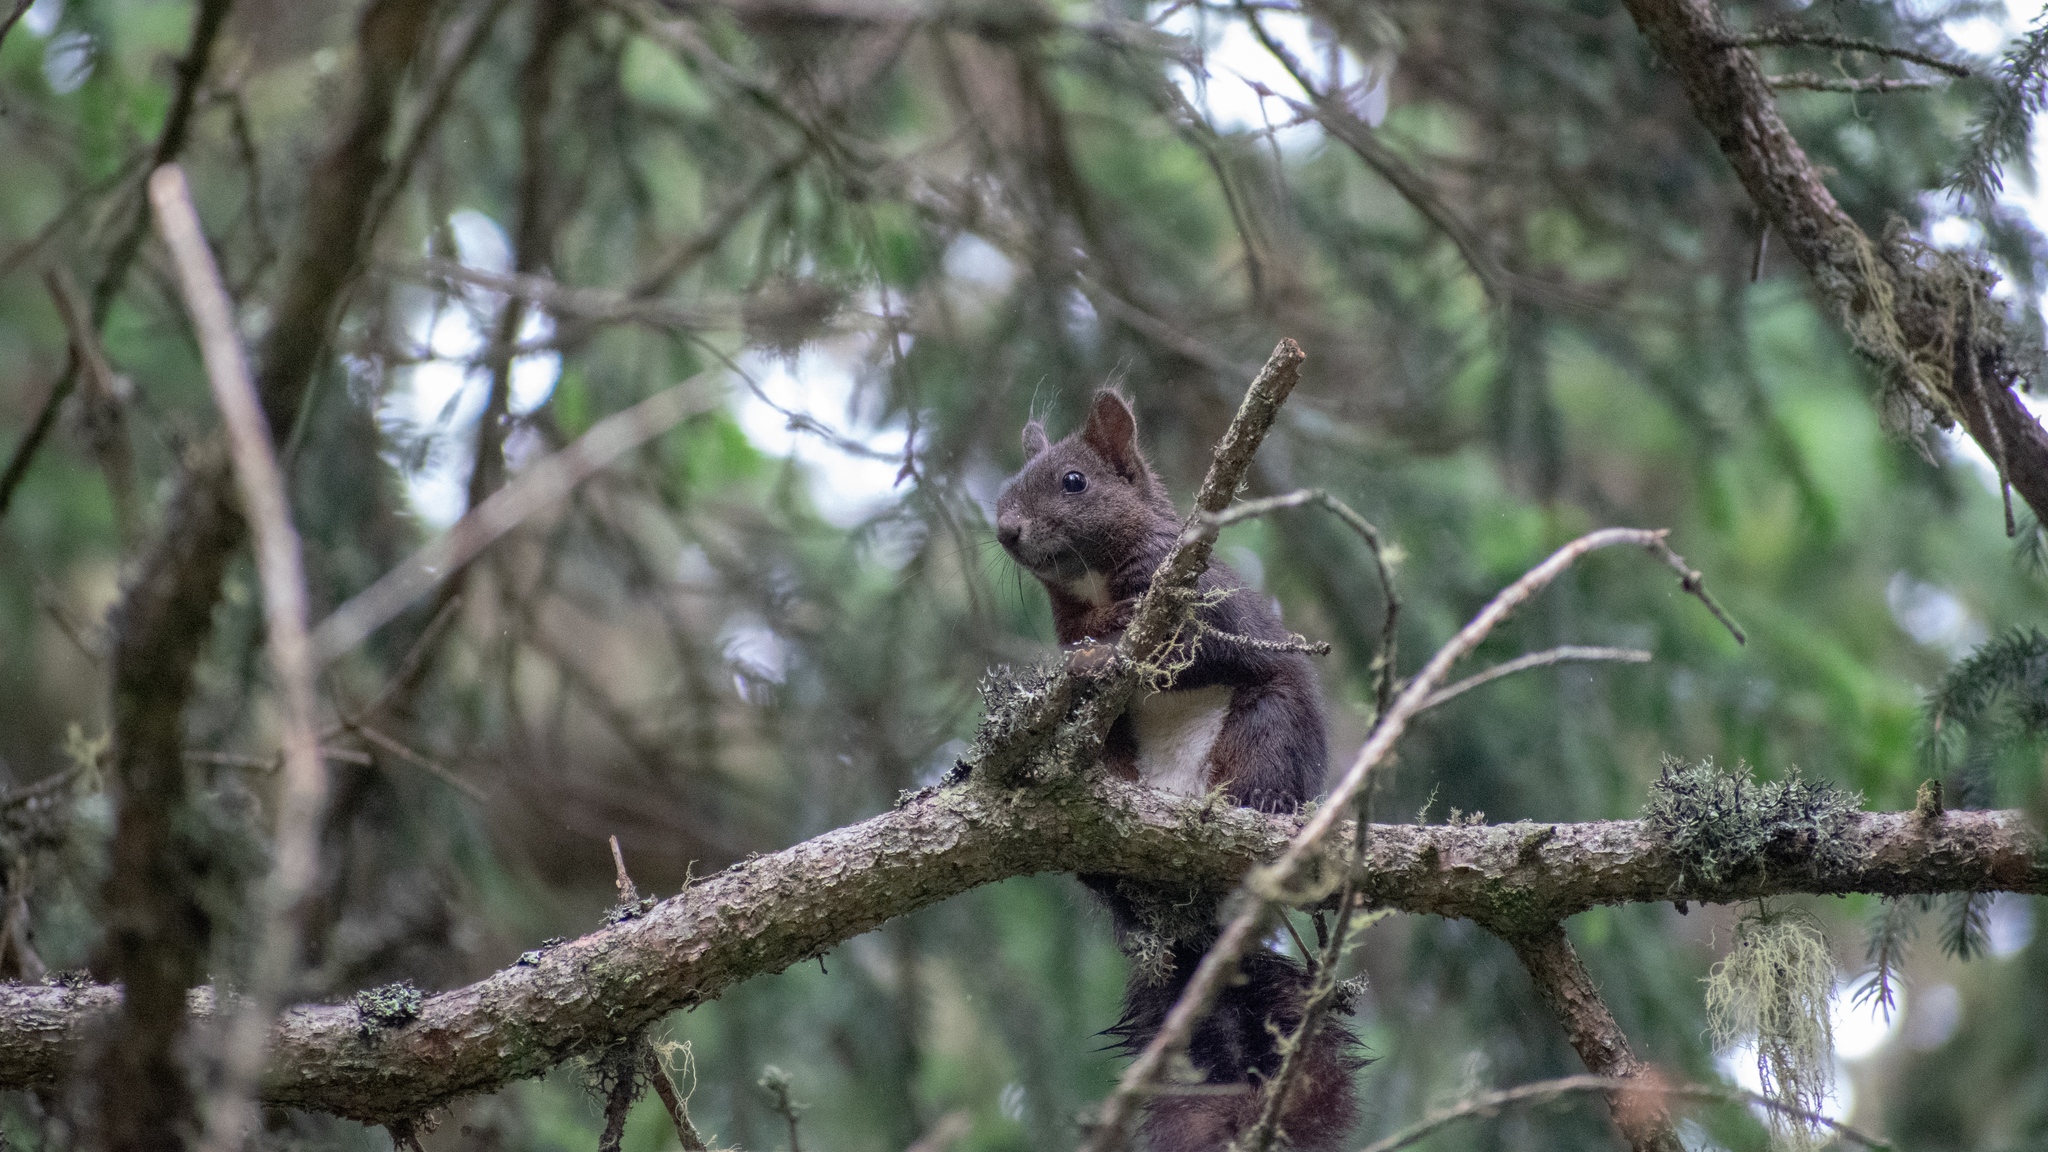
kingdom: Animalia
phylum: Chordata
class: Mammalia
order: Rodentia
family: Sciuridae
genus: Sciurus
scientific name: Sciurus vulgaris
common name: Eurasian red squirrel
